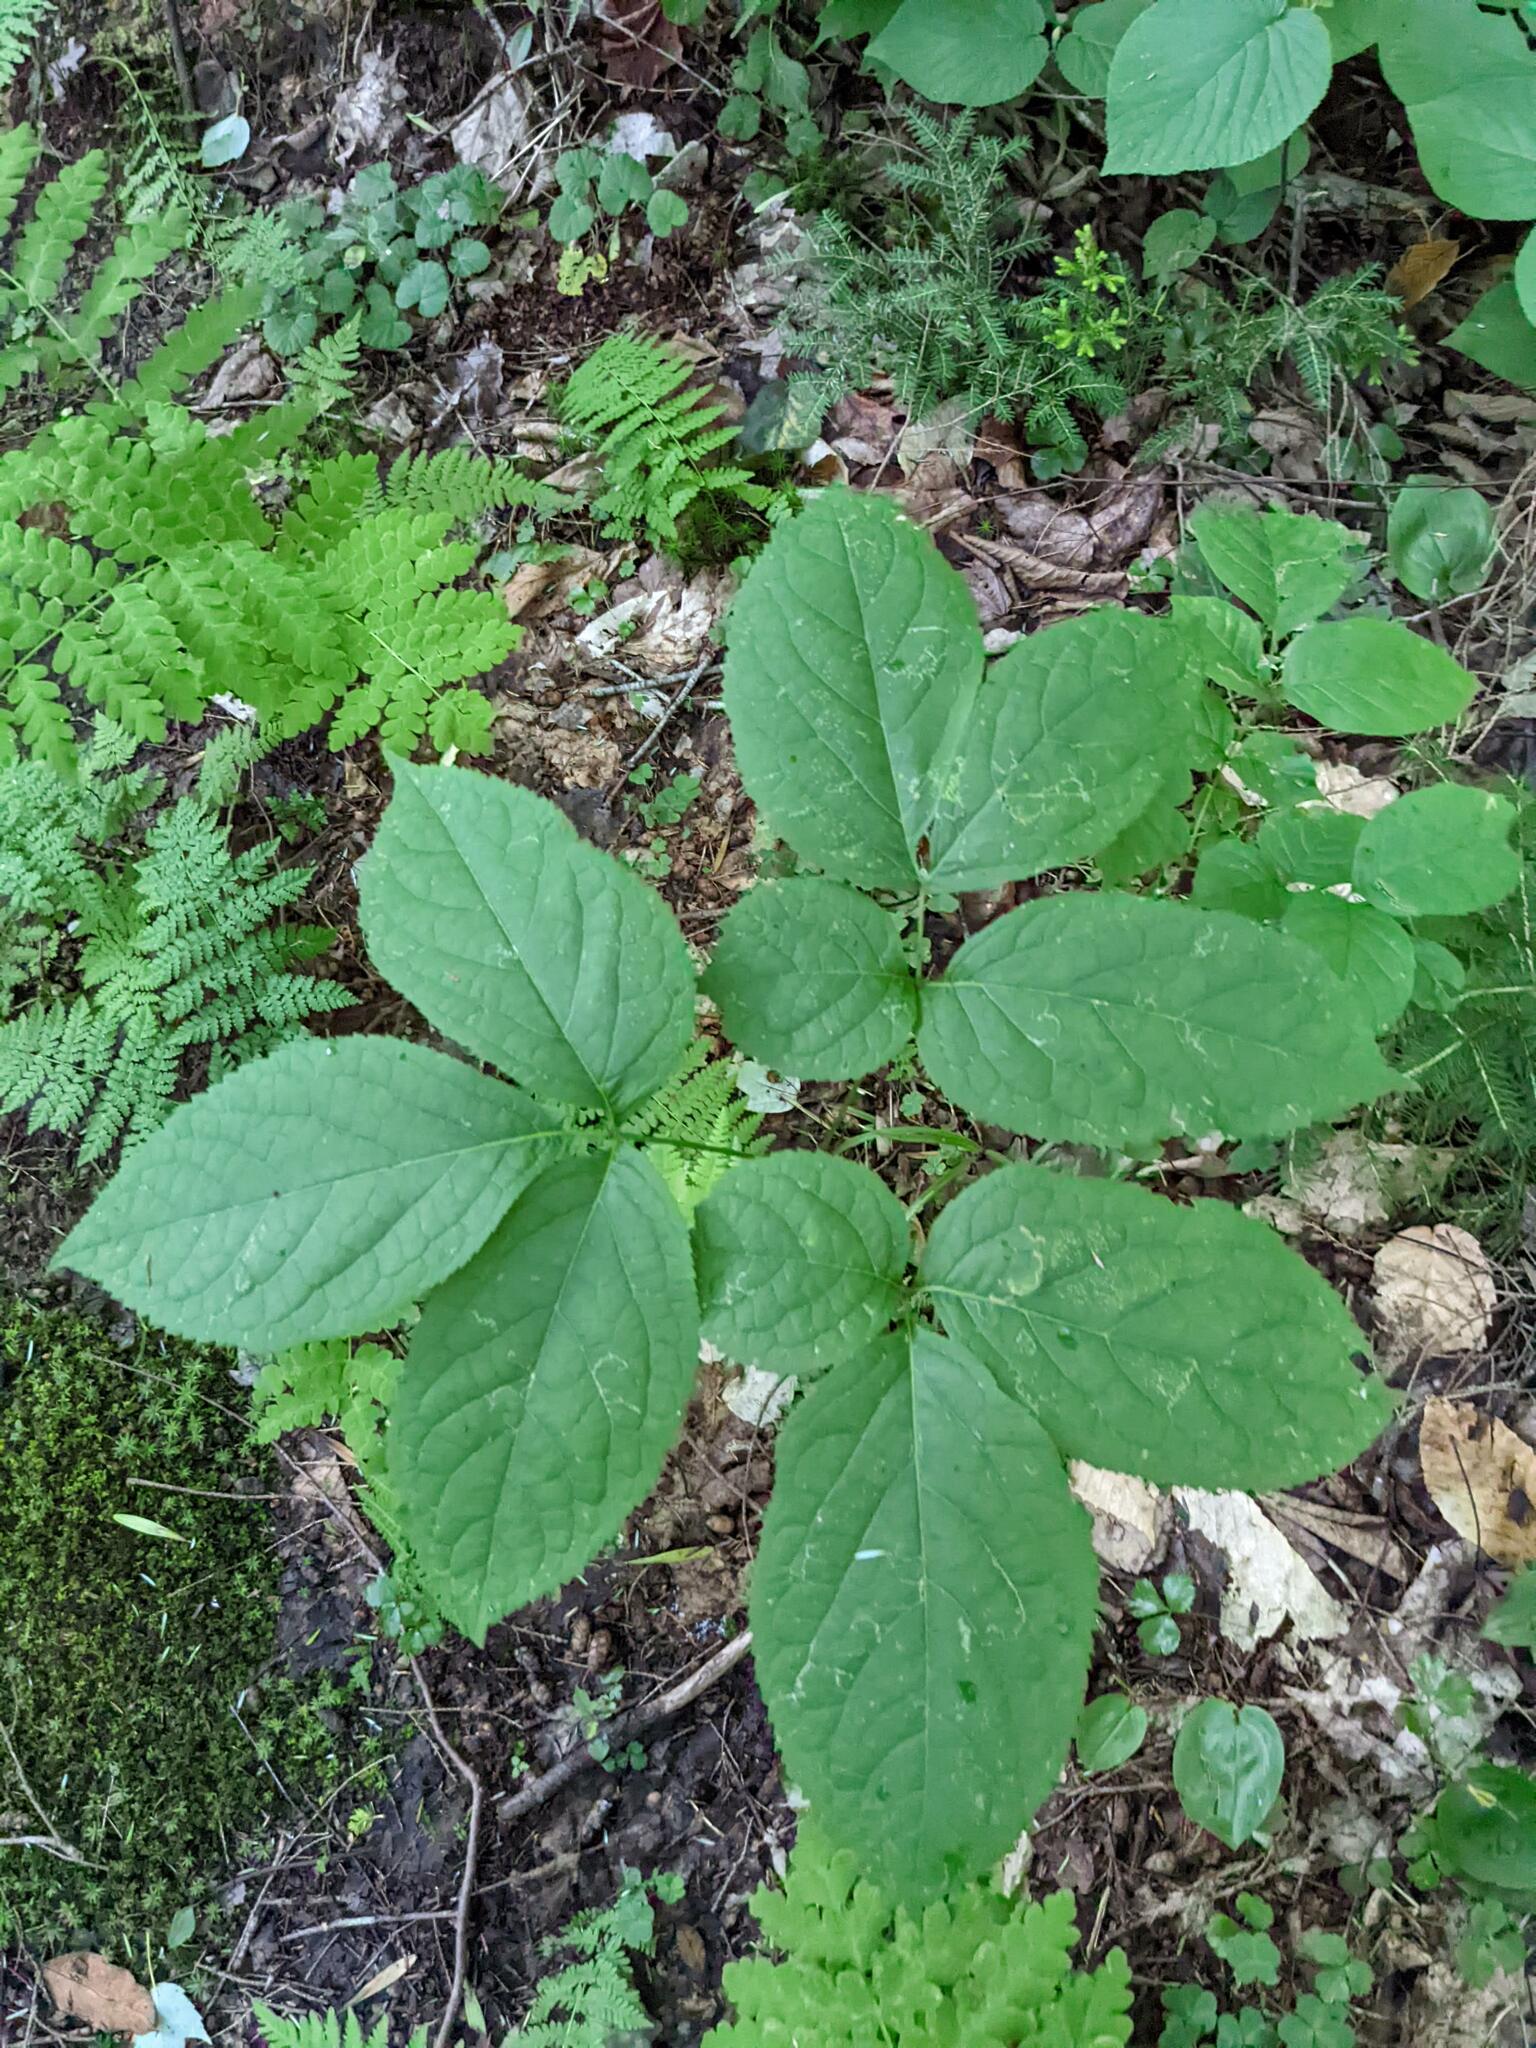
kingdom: Plantae
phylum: Tracheophyta
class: Magnoliopsida
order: Apiales
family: Araliaceae
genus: Aralia
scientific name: Aralia nudicaulis
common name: Wild sarsaparilla
